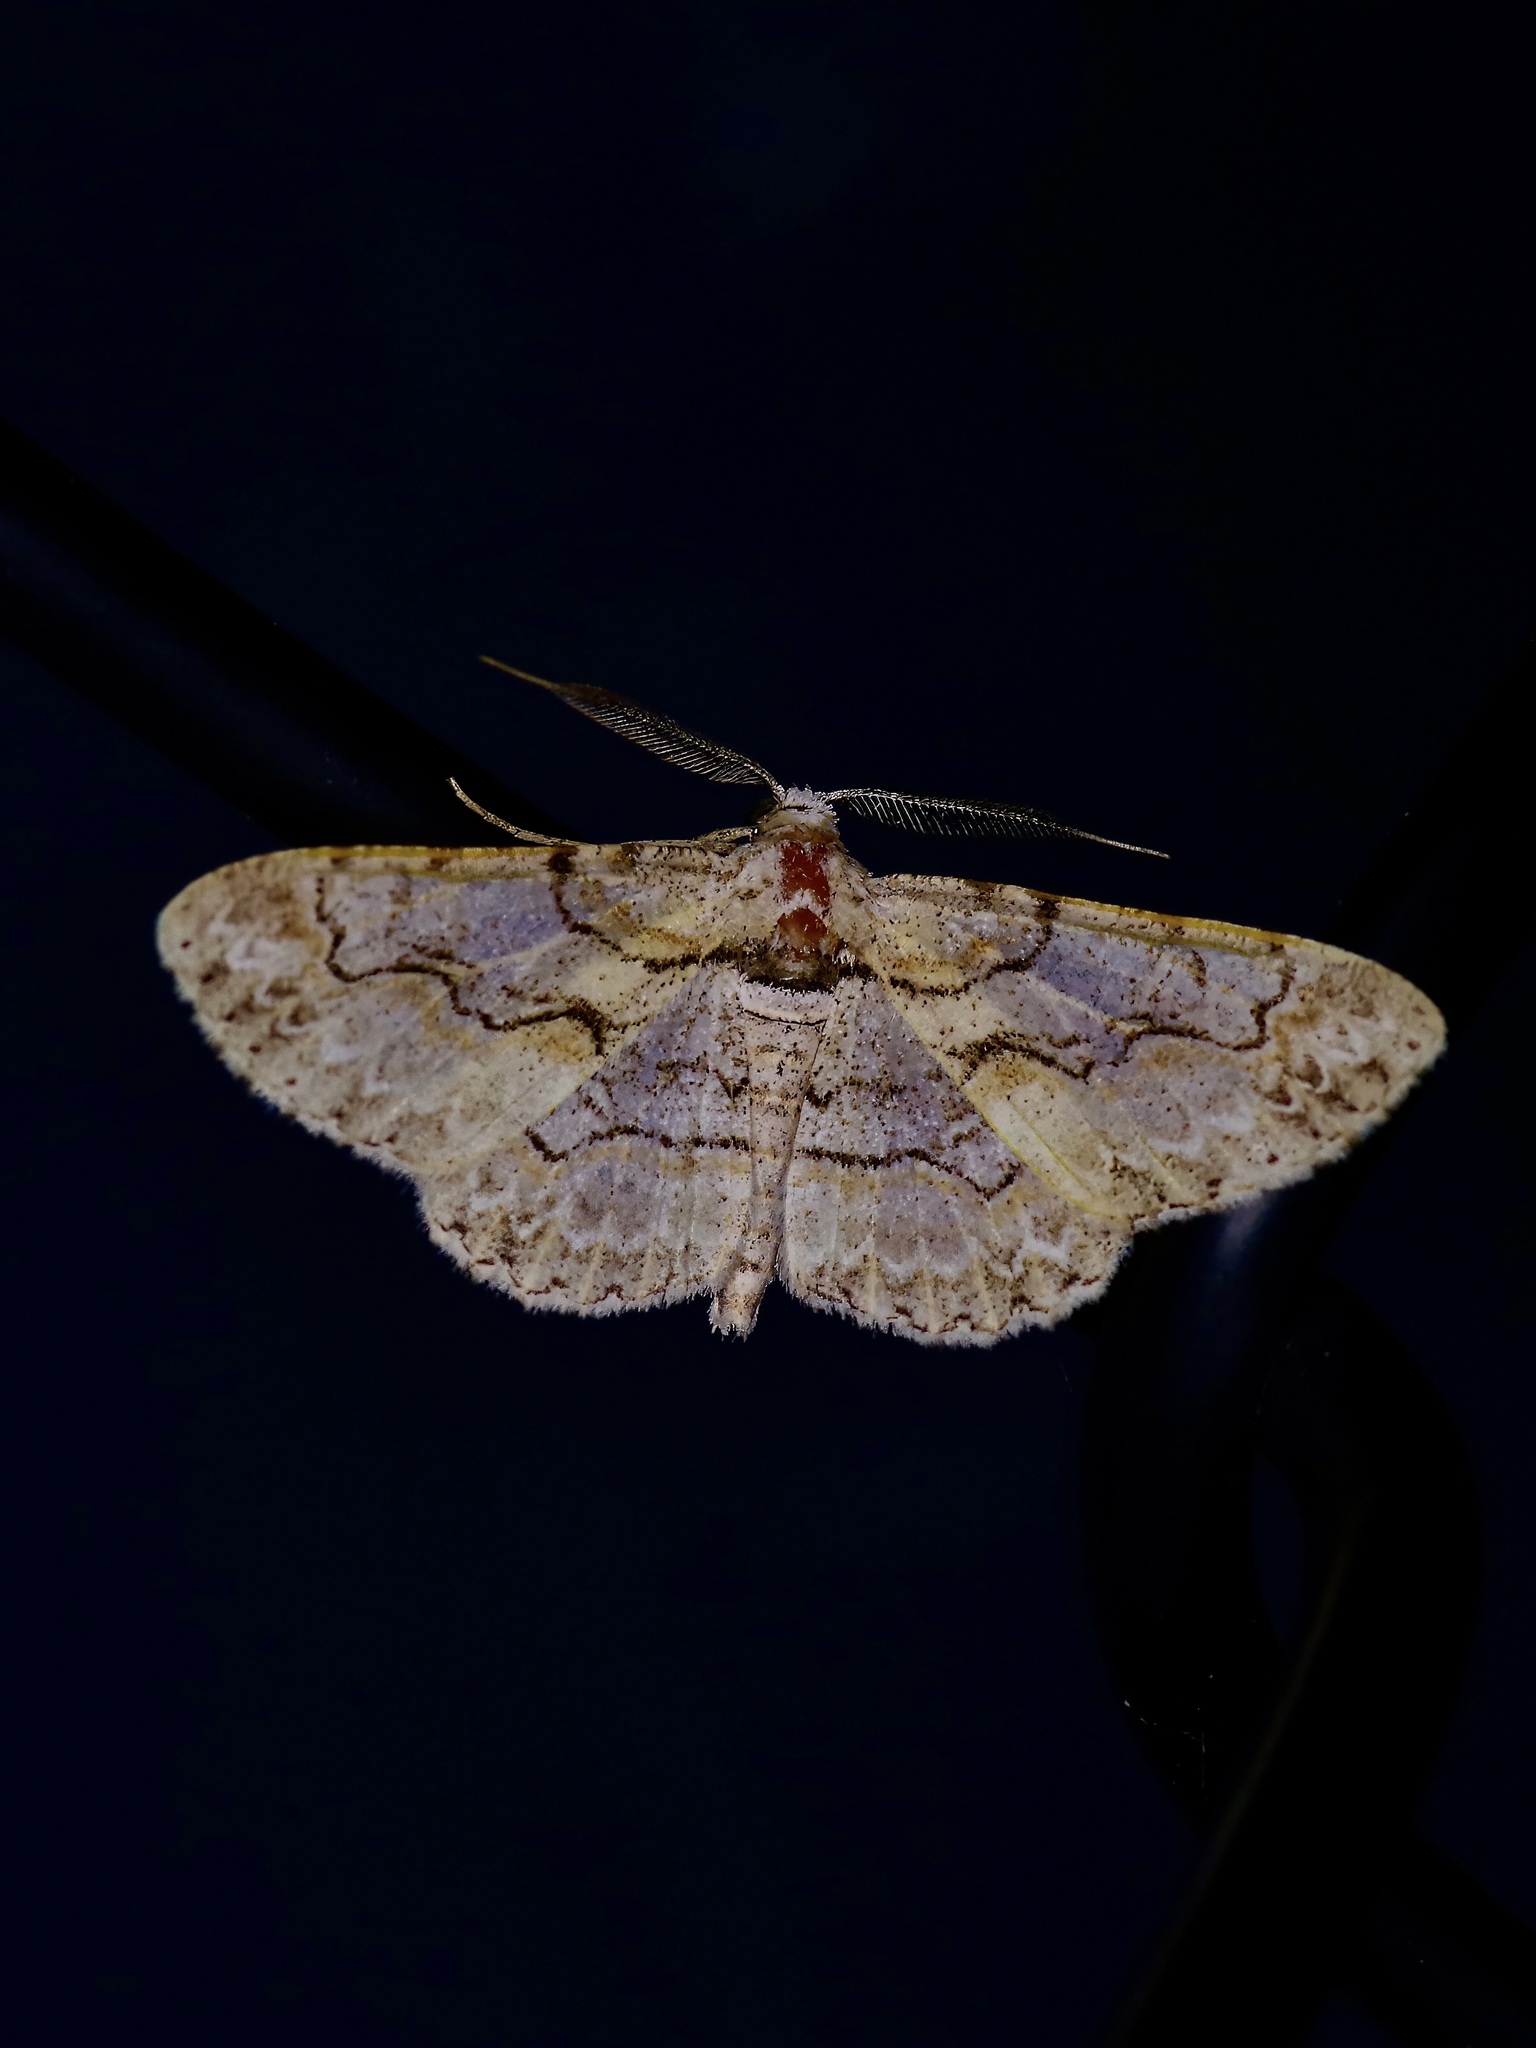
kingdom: Animalia
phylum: Arthropoda
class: Insecta
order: Lepidoptera
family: Geometridae
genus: Iridopsis
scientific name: Iridopsis defectaria
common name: Brown-shaded gray
